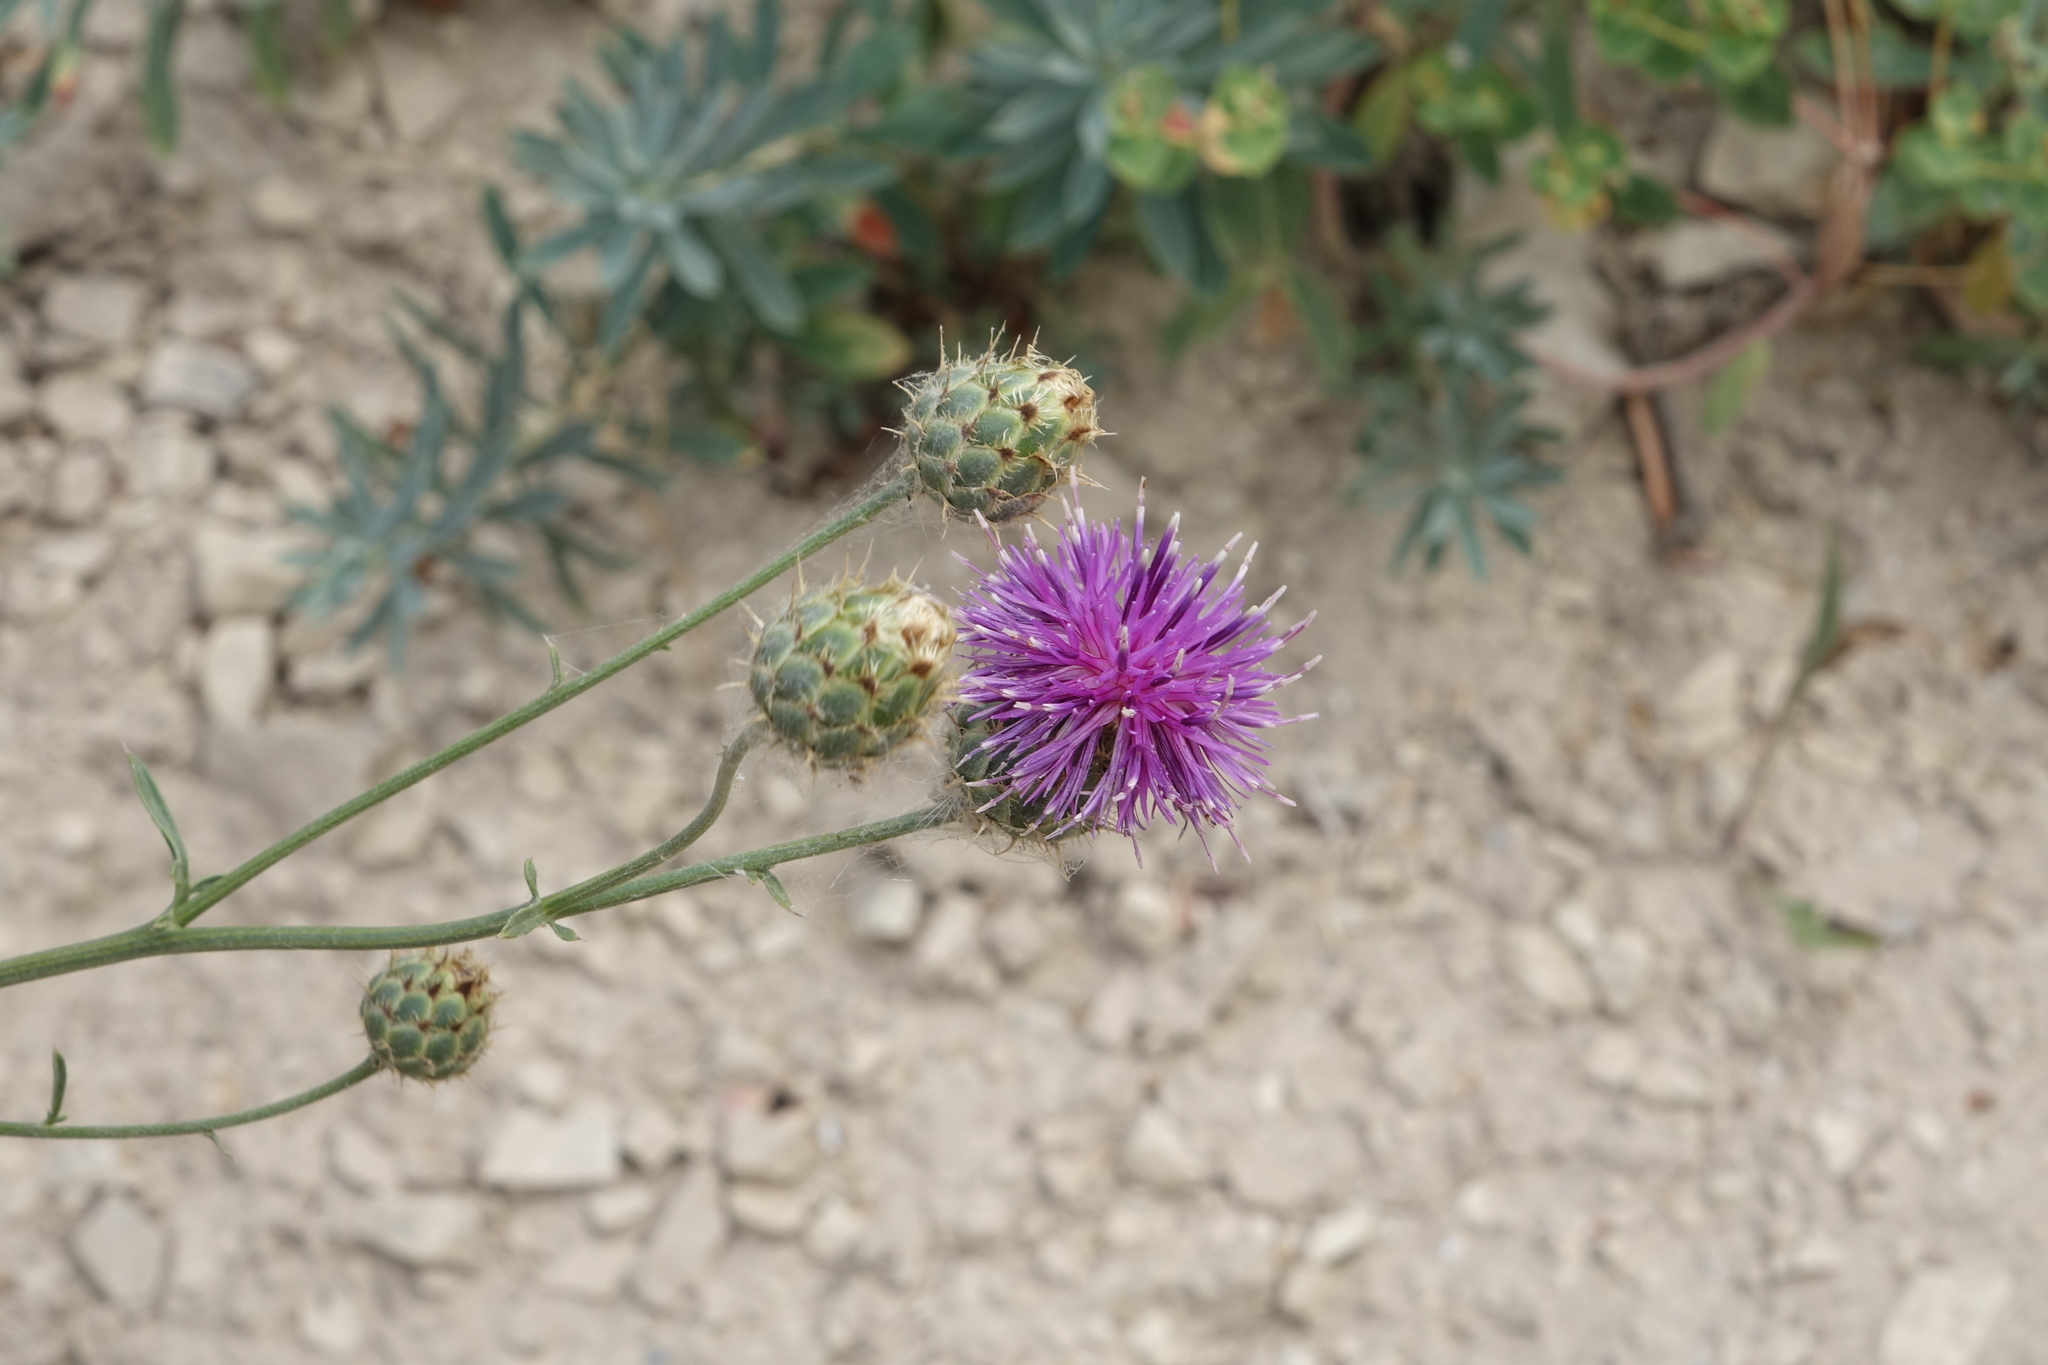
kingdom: Plantae
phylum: Tracheophyta
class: Magnoliopsida
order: Asterales
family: Asteraceae
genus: Centaurea
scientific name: Centaurea scabiosa
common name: Greater knapweed
